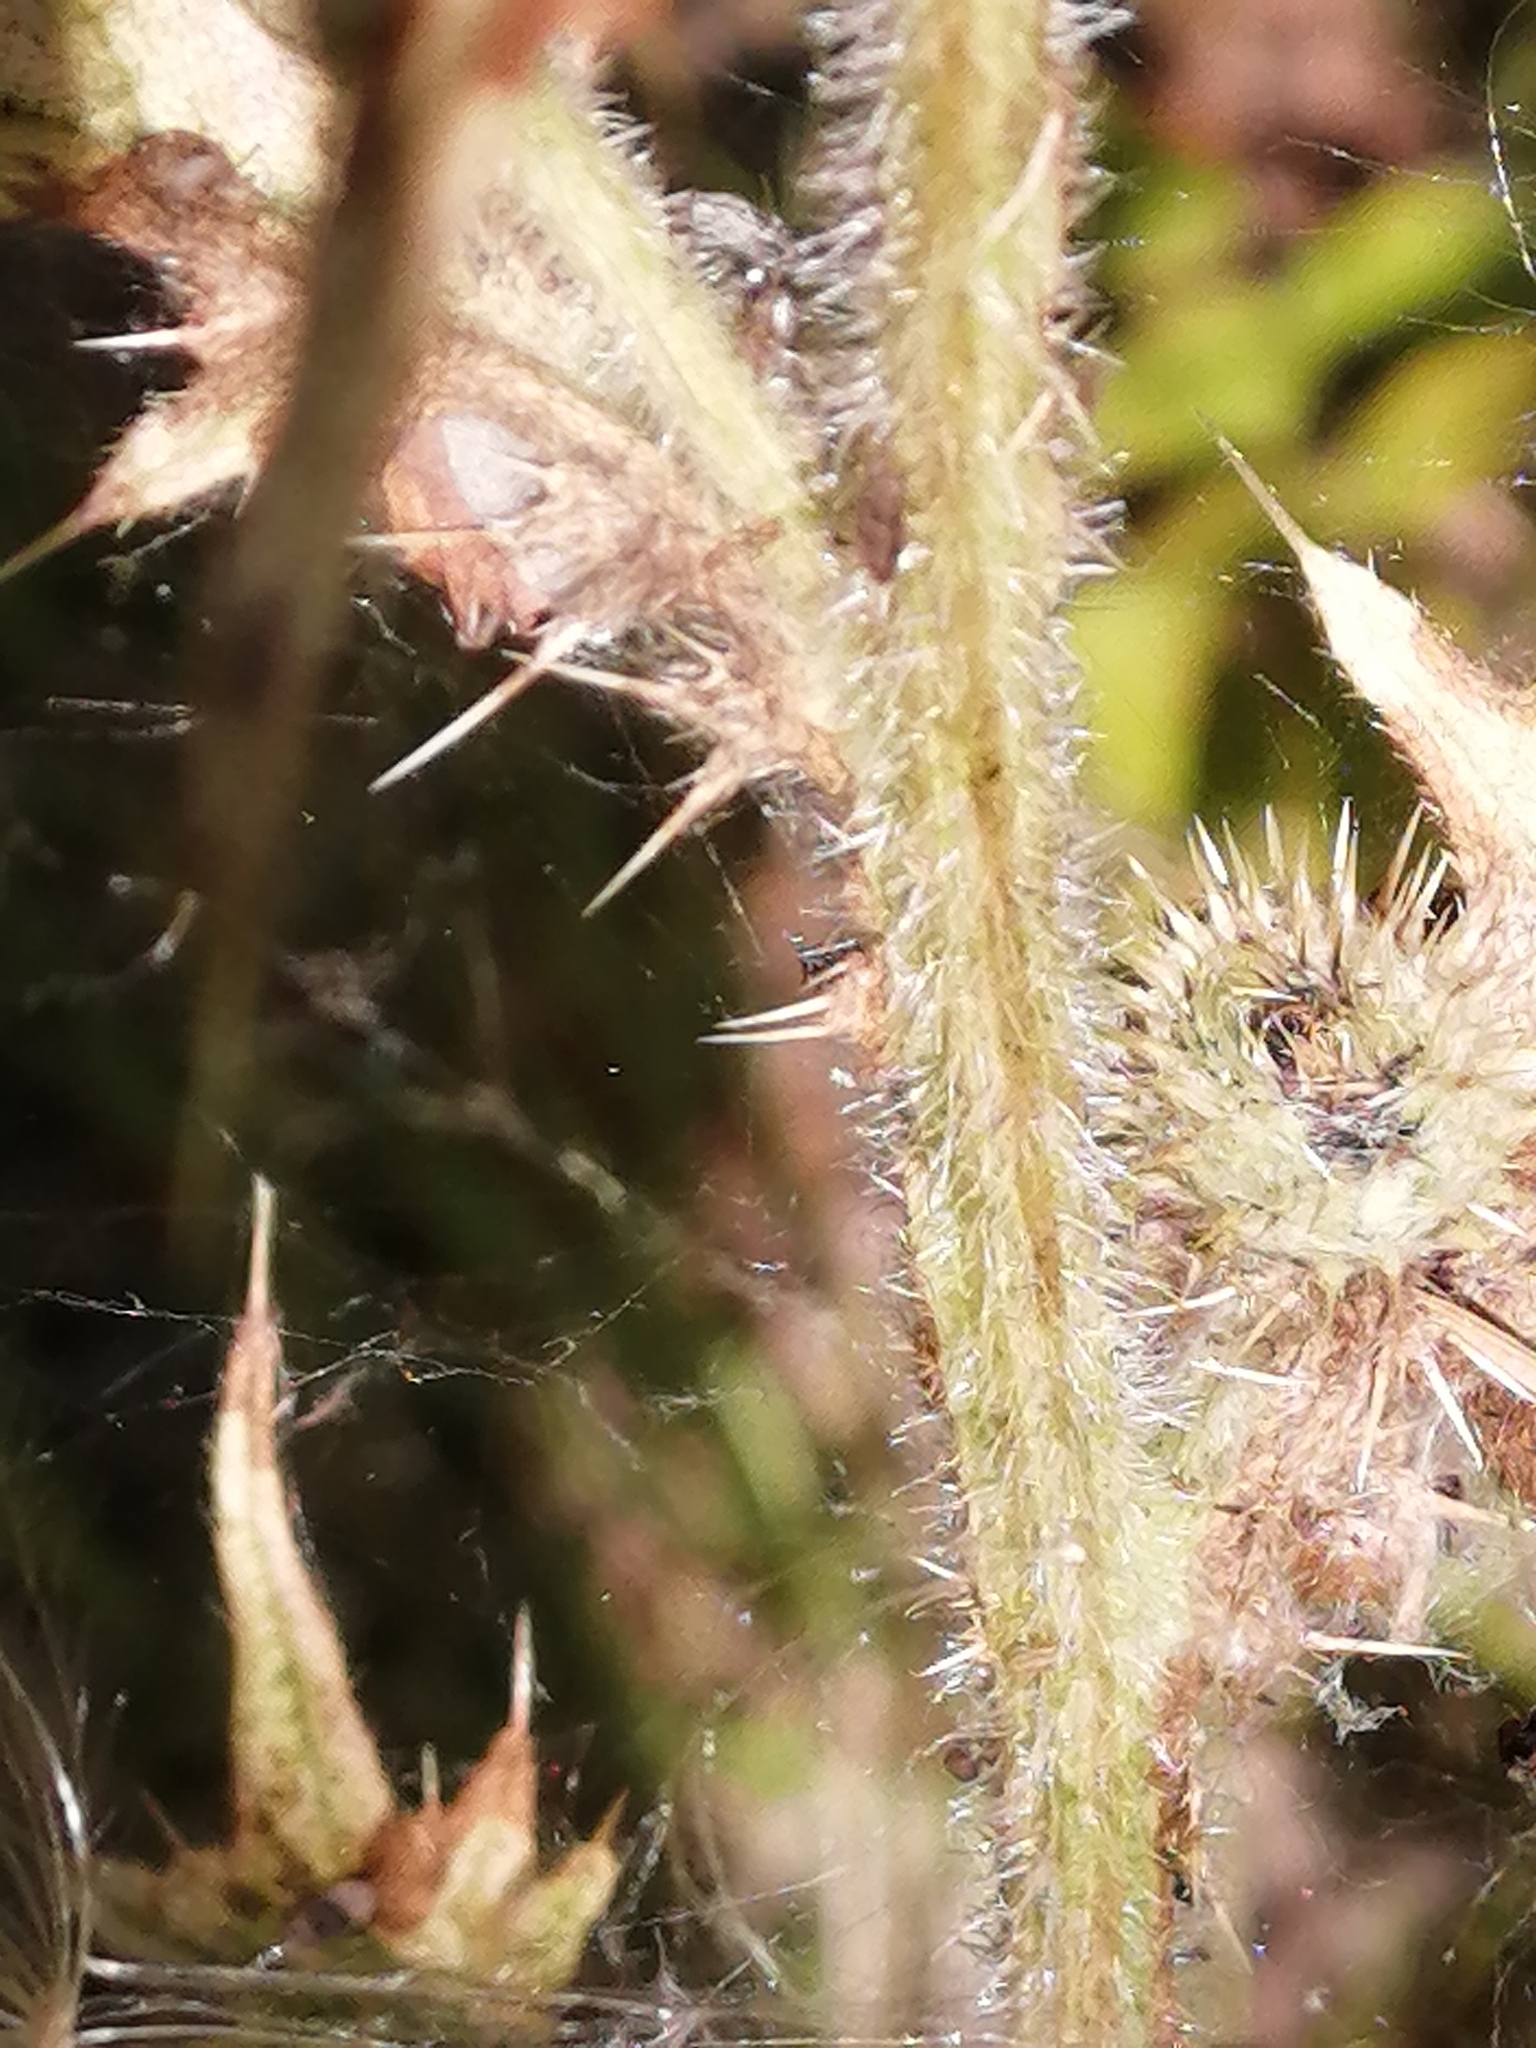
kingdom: Plantae
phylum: Tracheophyta
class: Magnoliopsida
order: Asterales
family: Asteraceae
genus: Cirsium
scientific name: Cirsium vulgare
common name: Bull thistle
